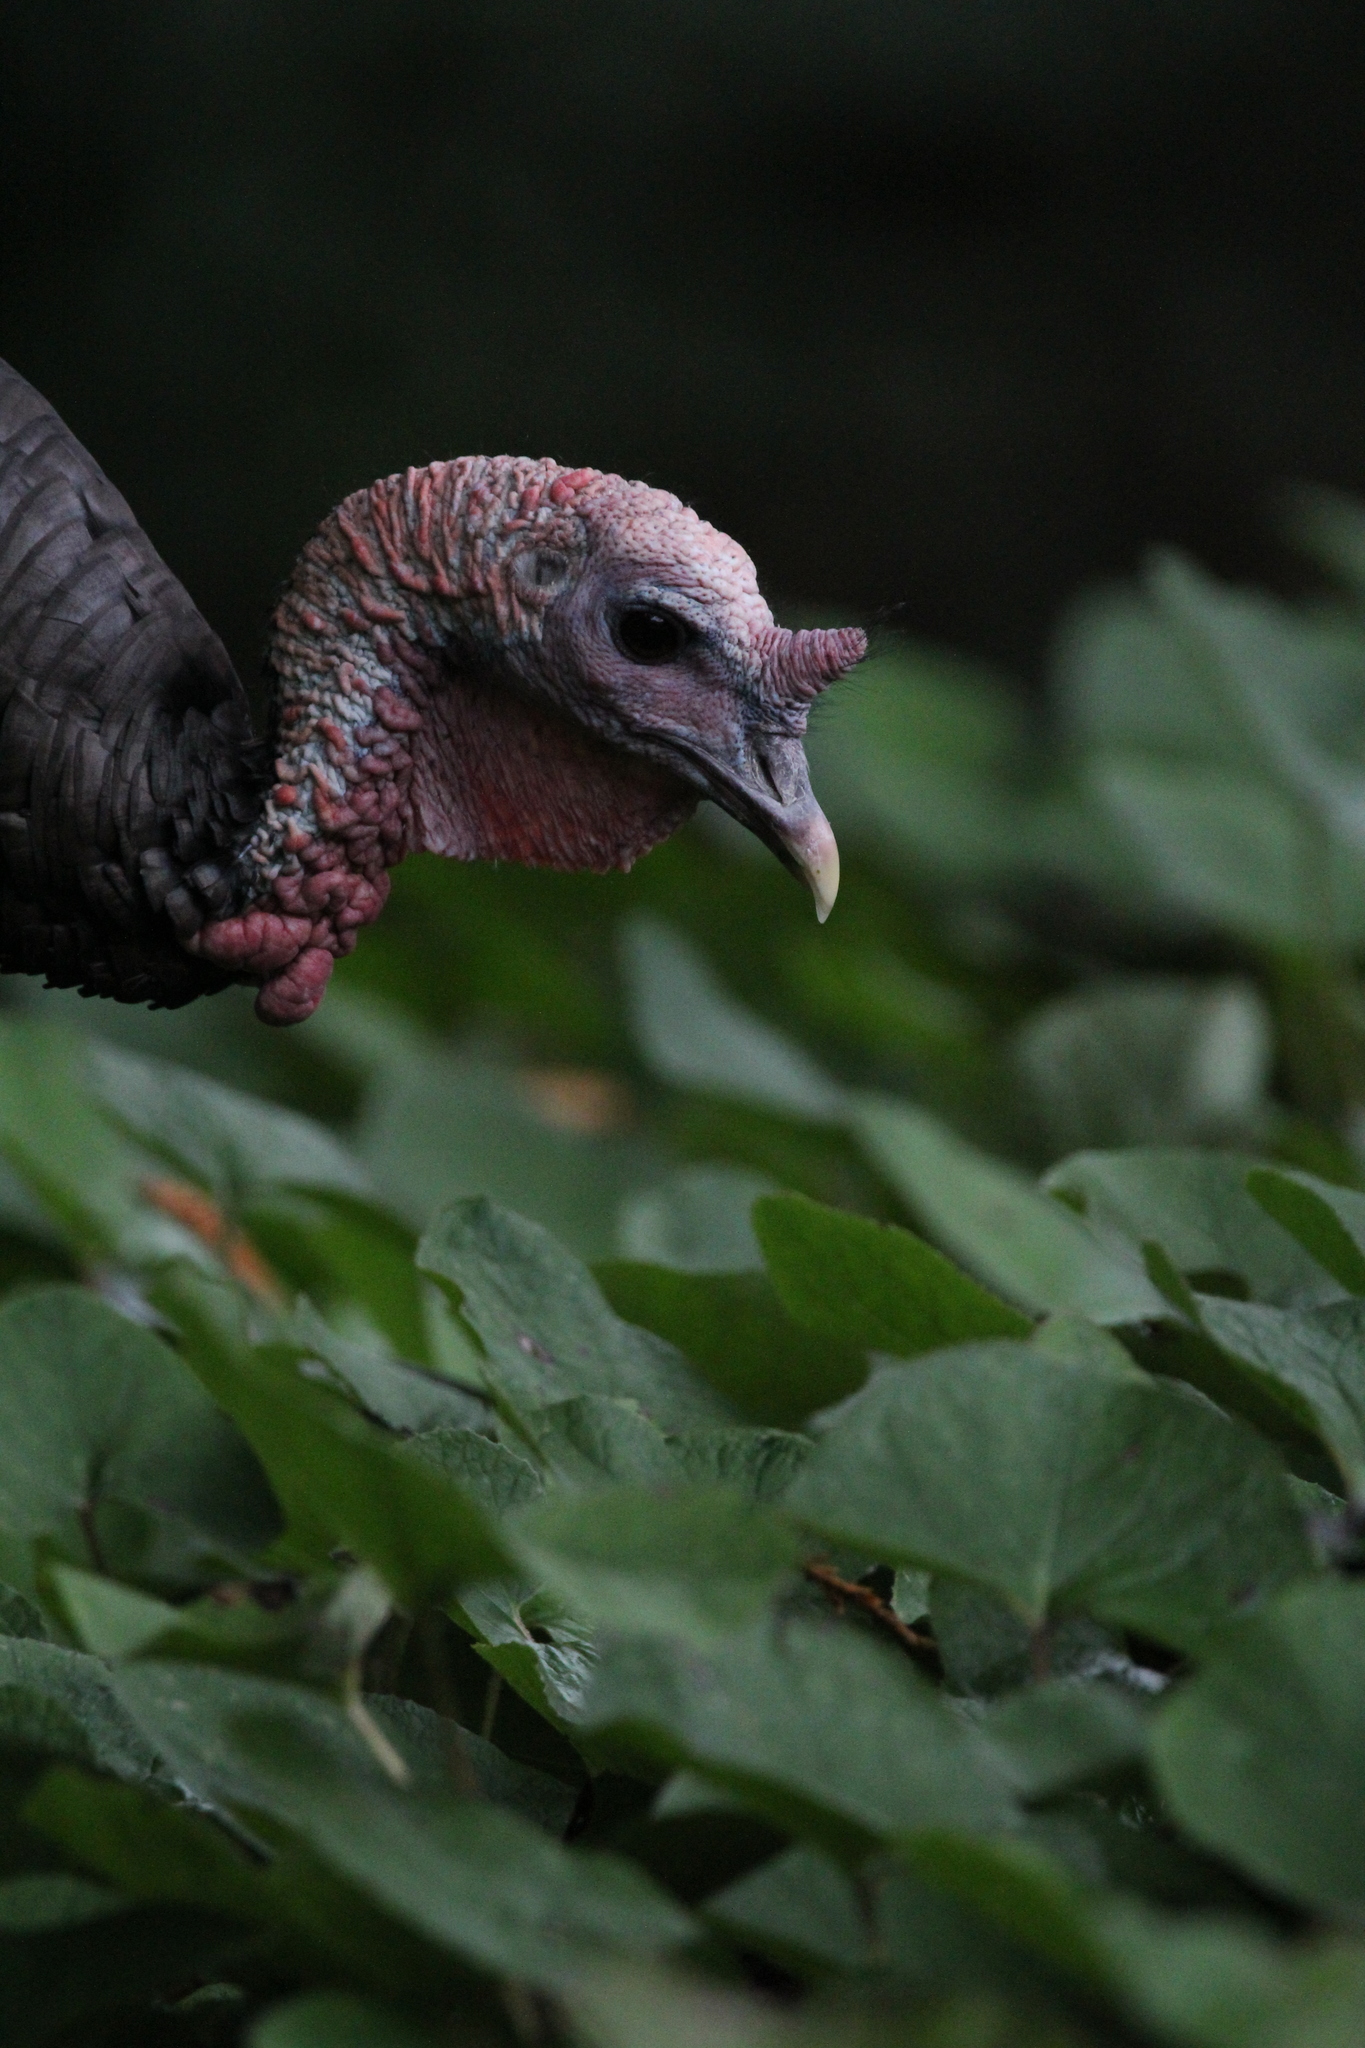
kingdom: Animalia
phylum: Chordata
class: Aves
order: Galliformes
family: Phasianidae
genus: Meleagris
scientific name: Meleagris gallopavo
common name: Wild turkey
